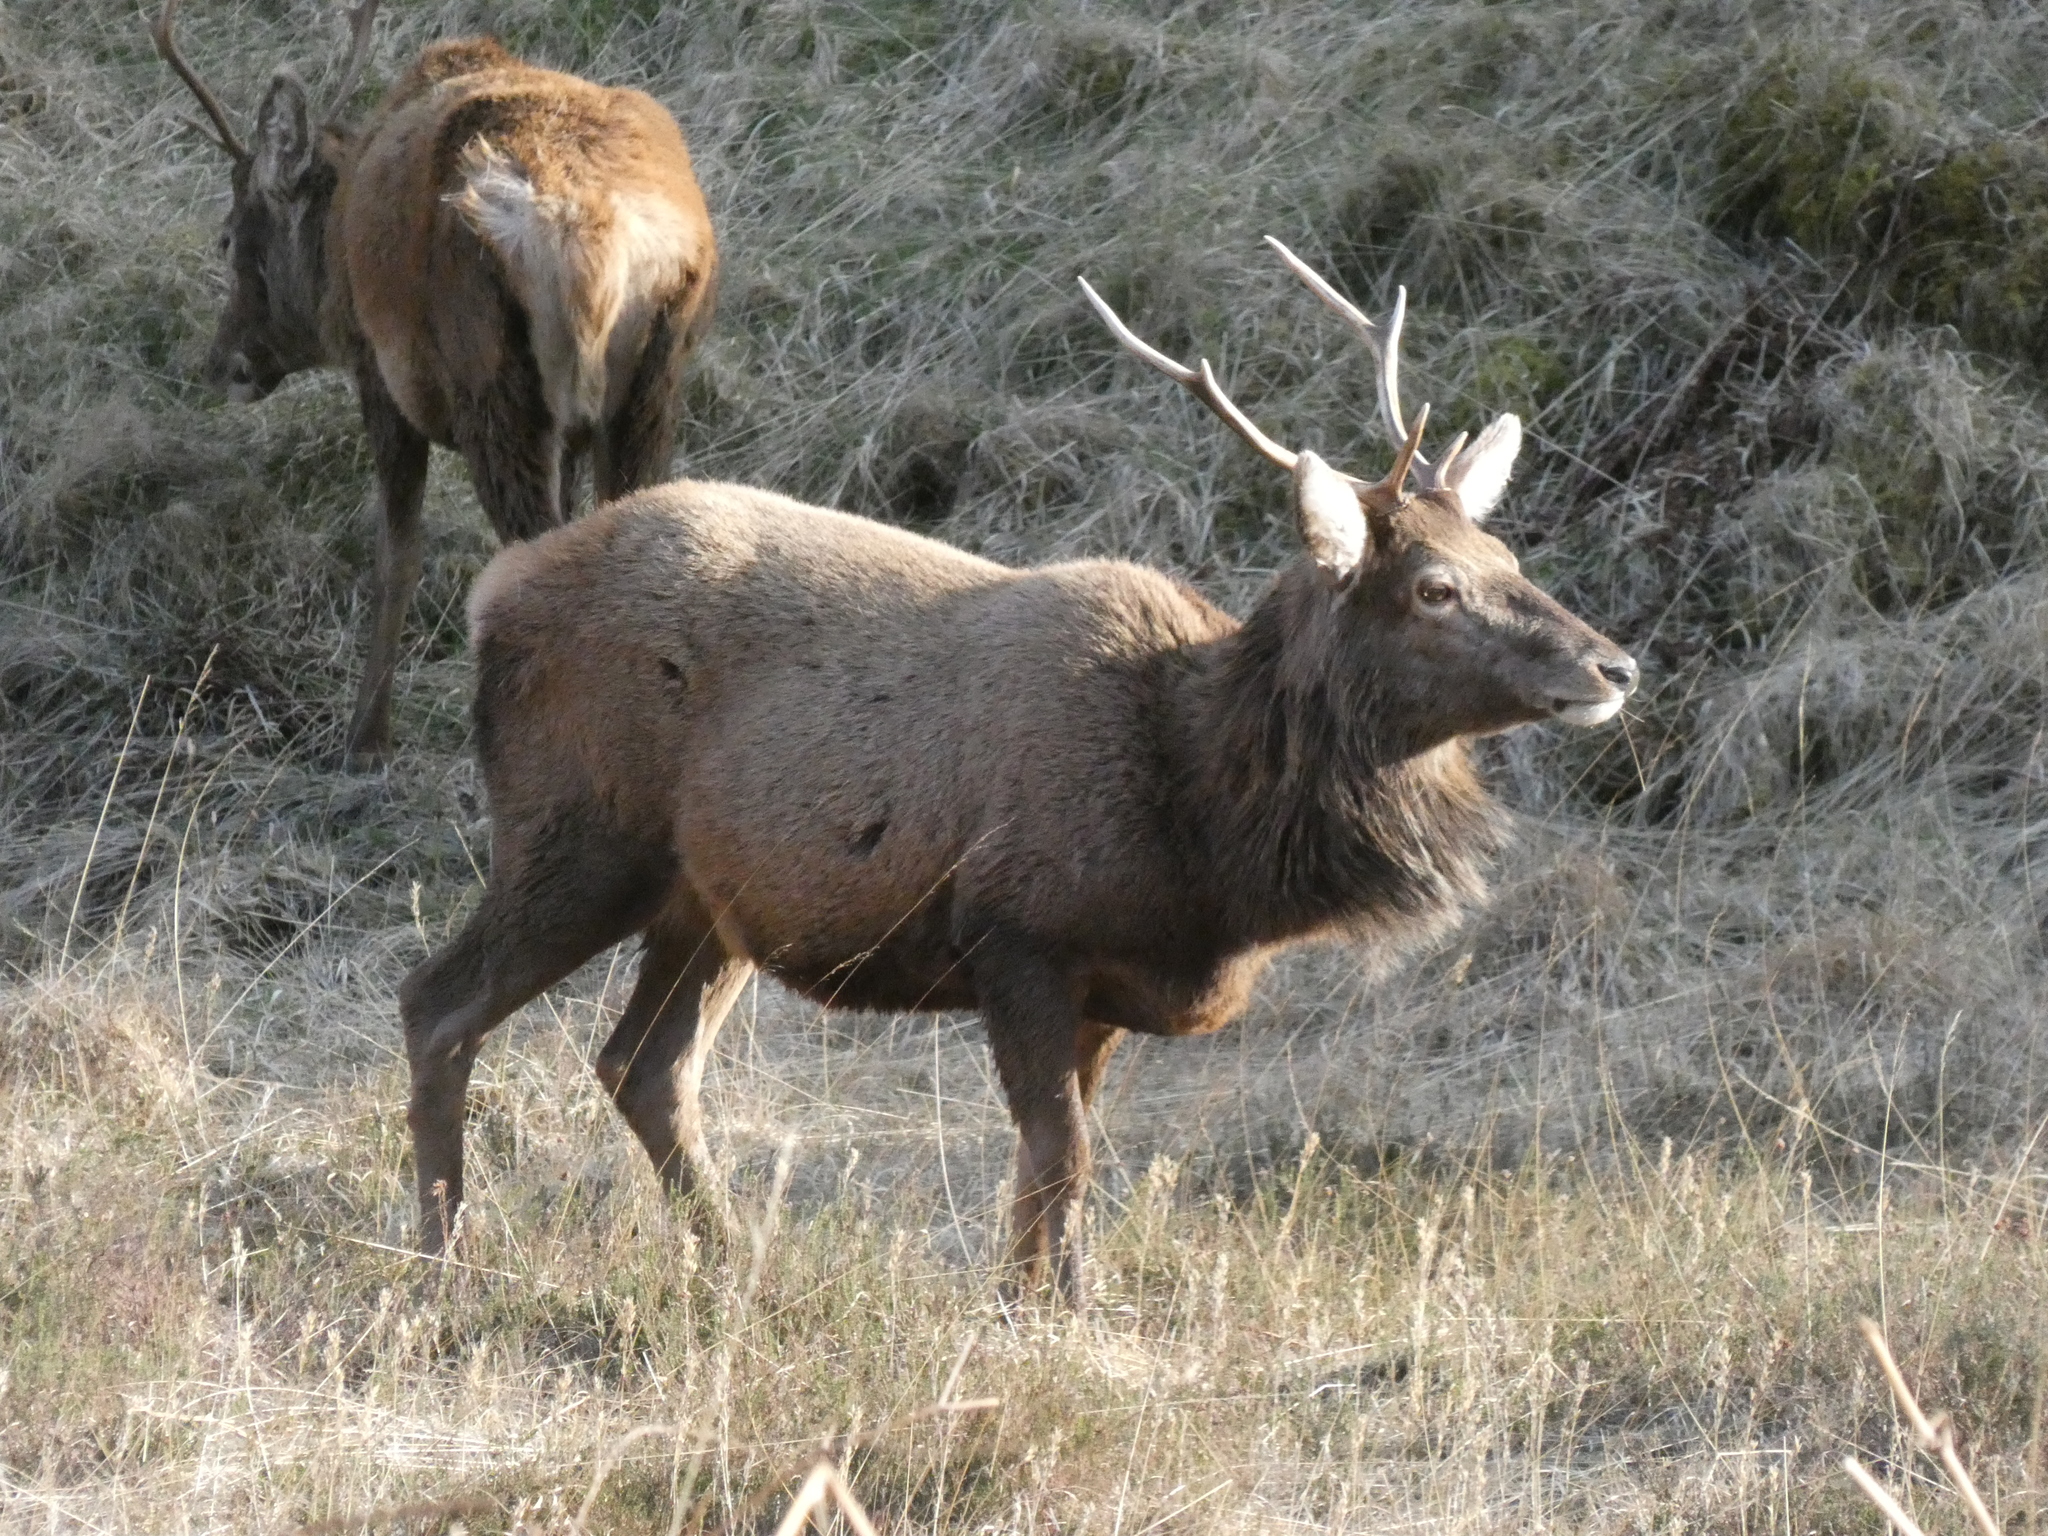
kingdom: Animalia
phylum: Chordata
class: Mammalia
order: Artiodactyla
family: Cervidae
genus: Cervus
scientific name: Cervus elaphus
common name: Red deer
